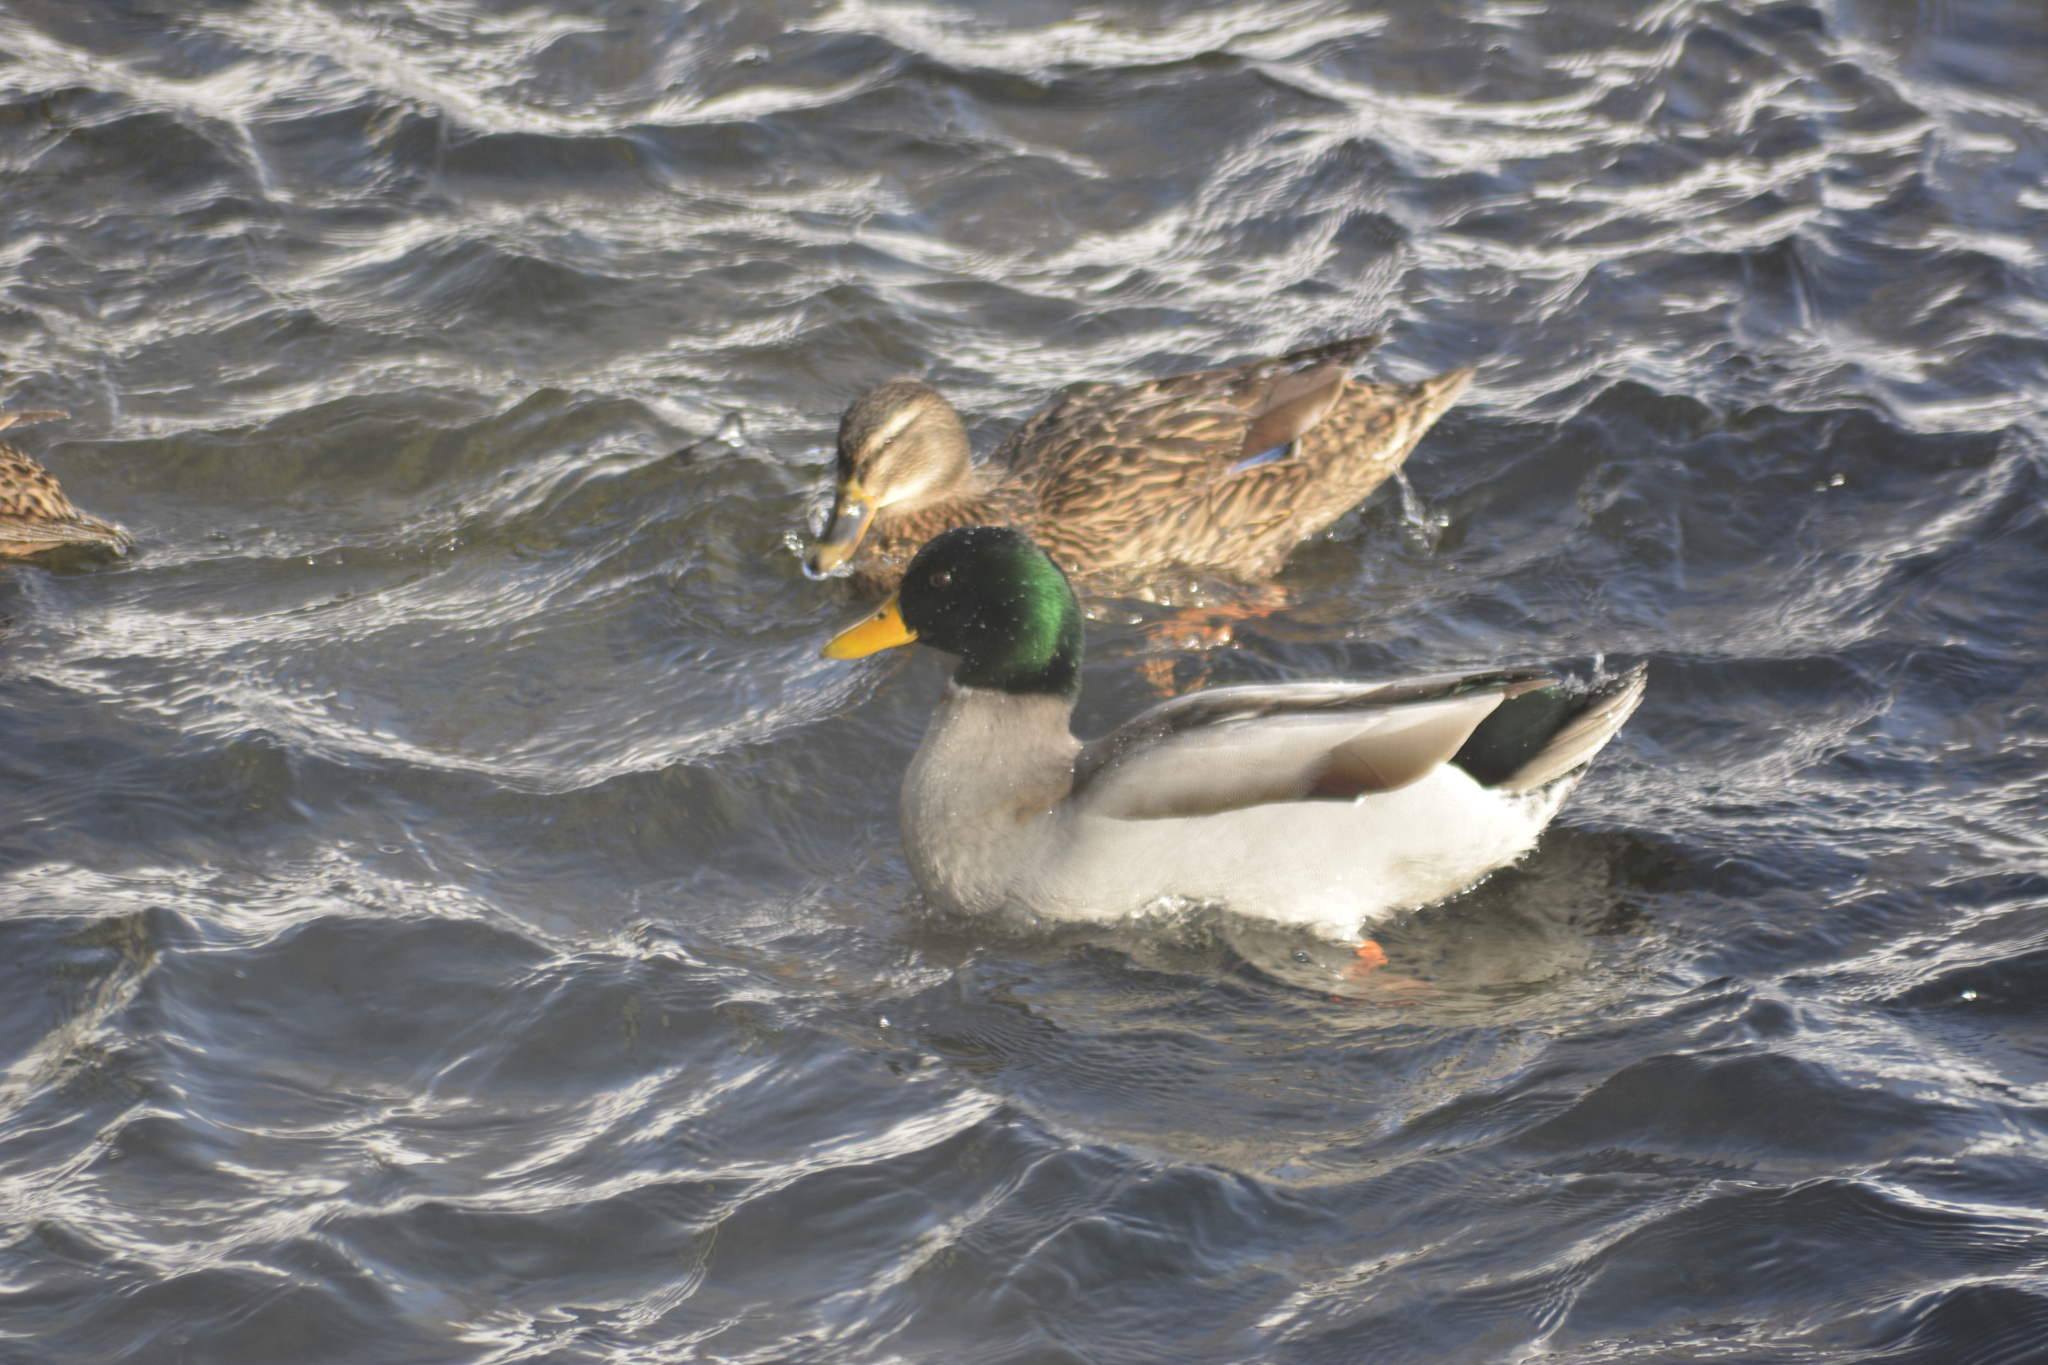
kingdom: Animalia
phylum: Chordata
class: Aves
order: Anseriformes
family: Anatidae
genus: Anas
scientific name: Anas platyrhynchos
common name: Mallard
